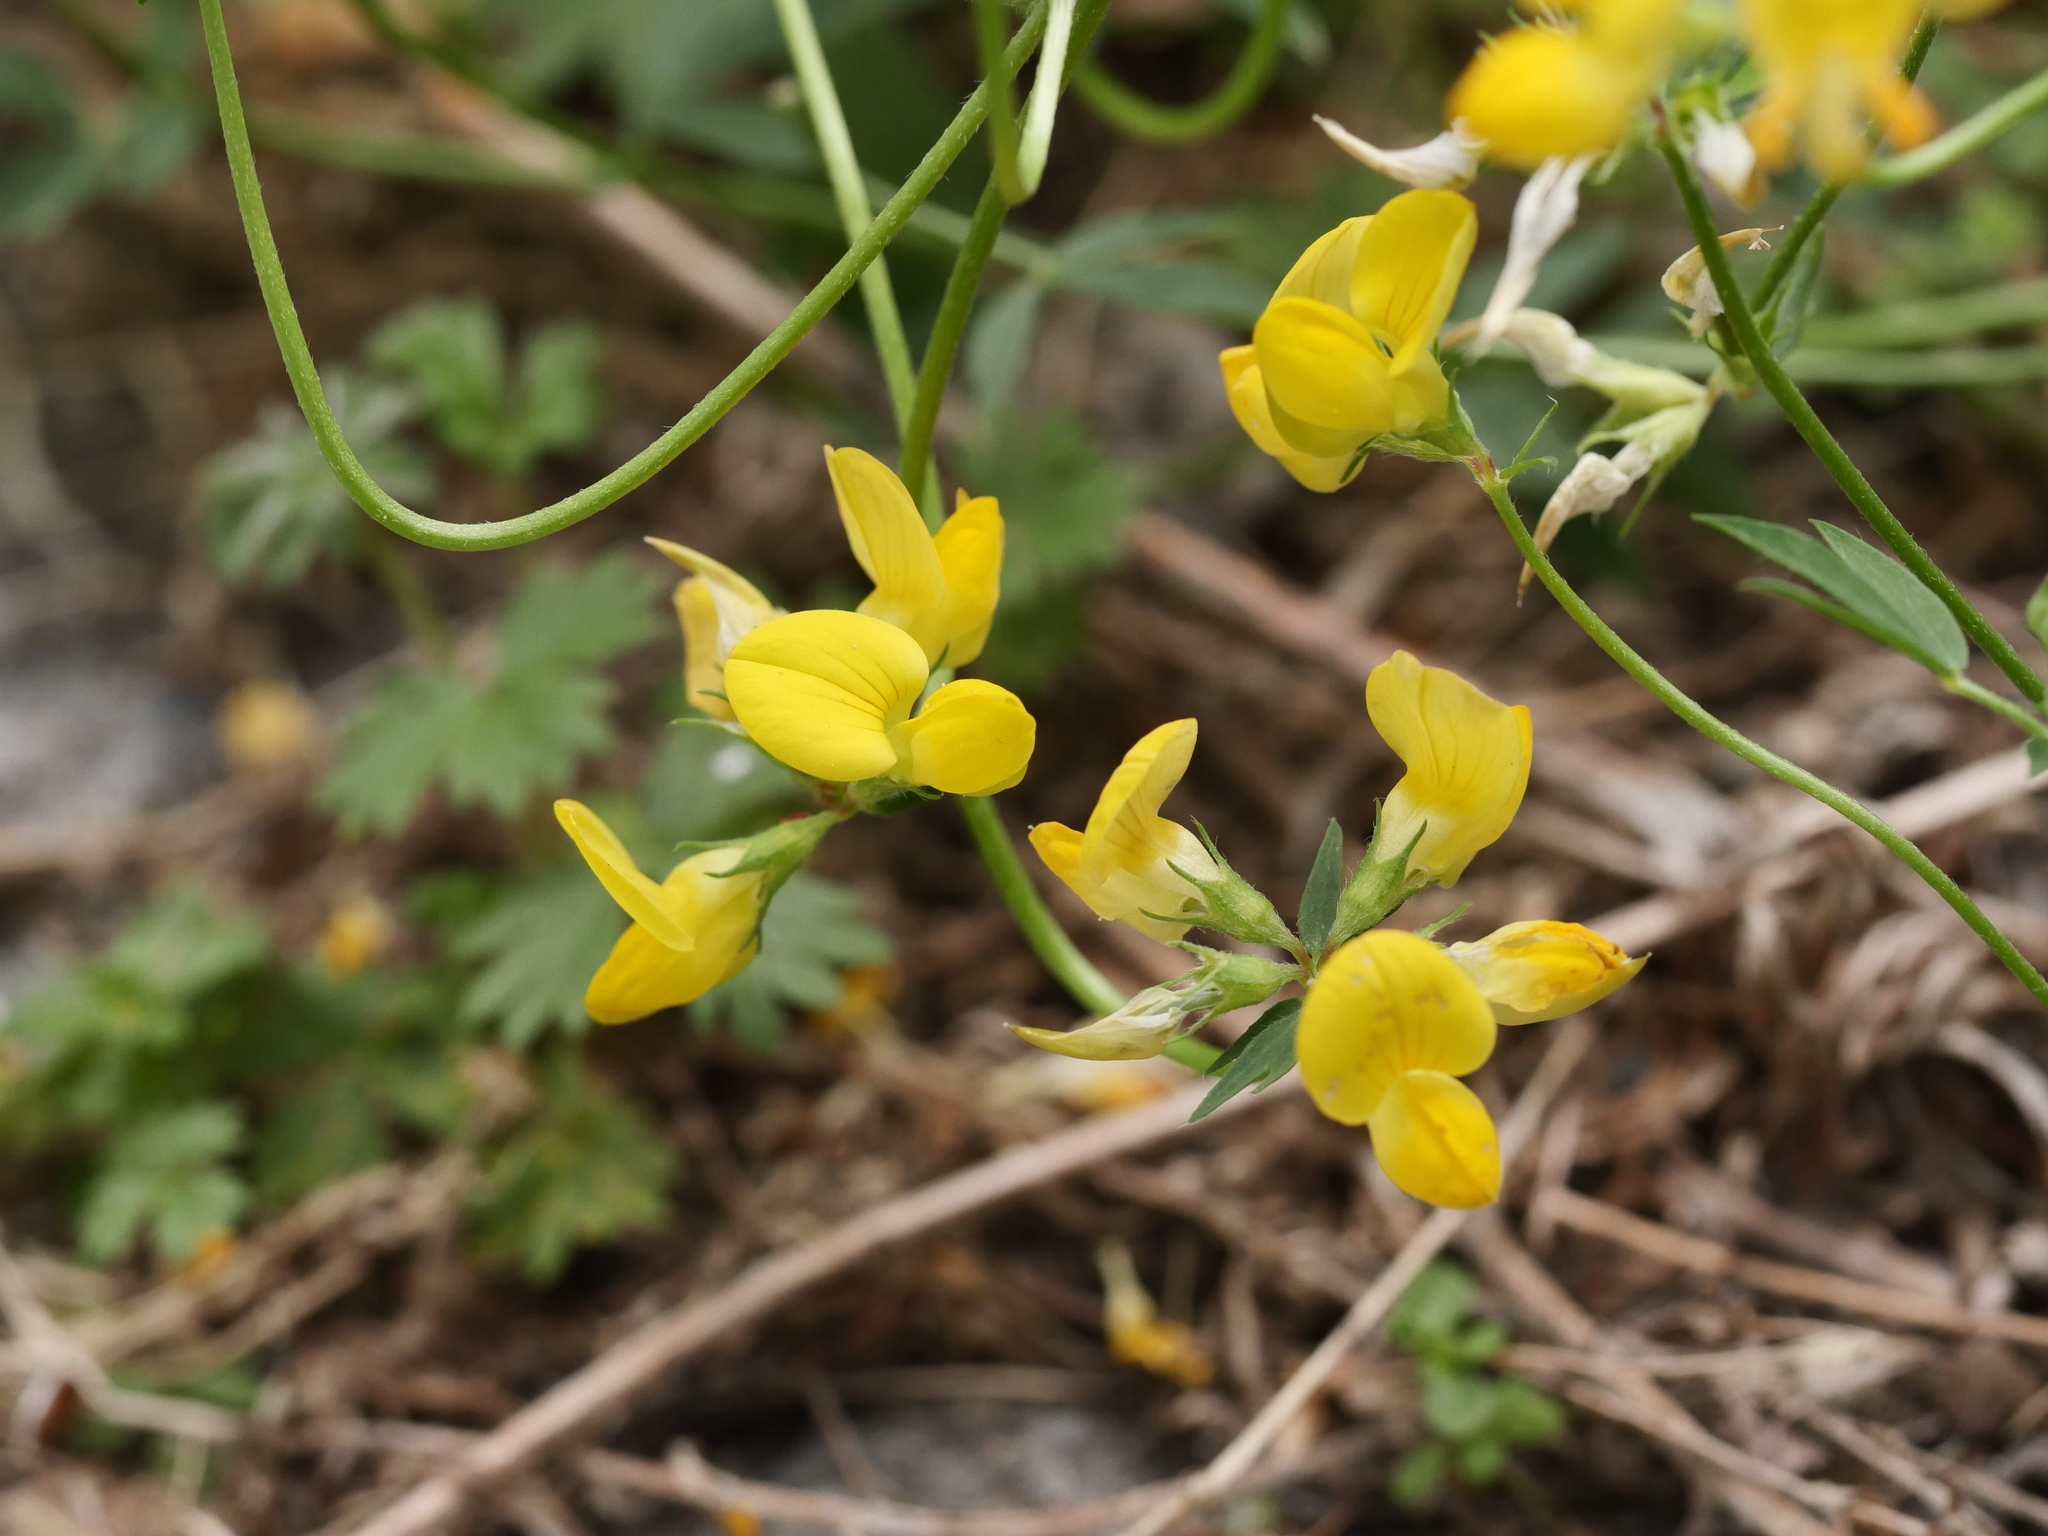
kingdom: Plantae
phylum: Tracheophyta
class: Magnoliopsida
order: Fabales
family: Fabaceae
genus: Lotus
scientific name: Lotus corniculatus
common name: Common bird's-foot-trefoil
